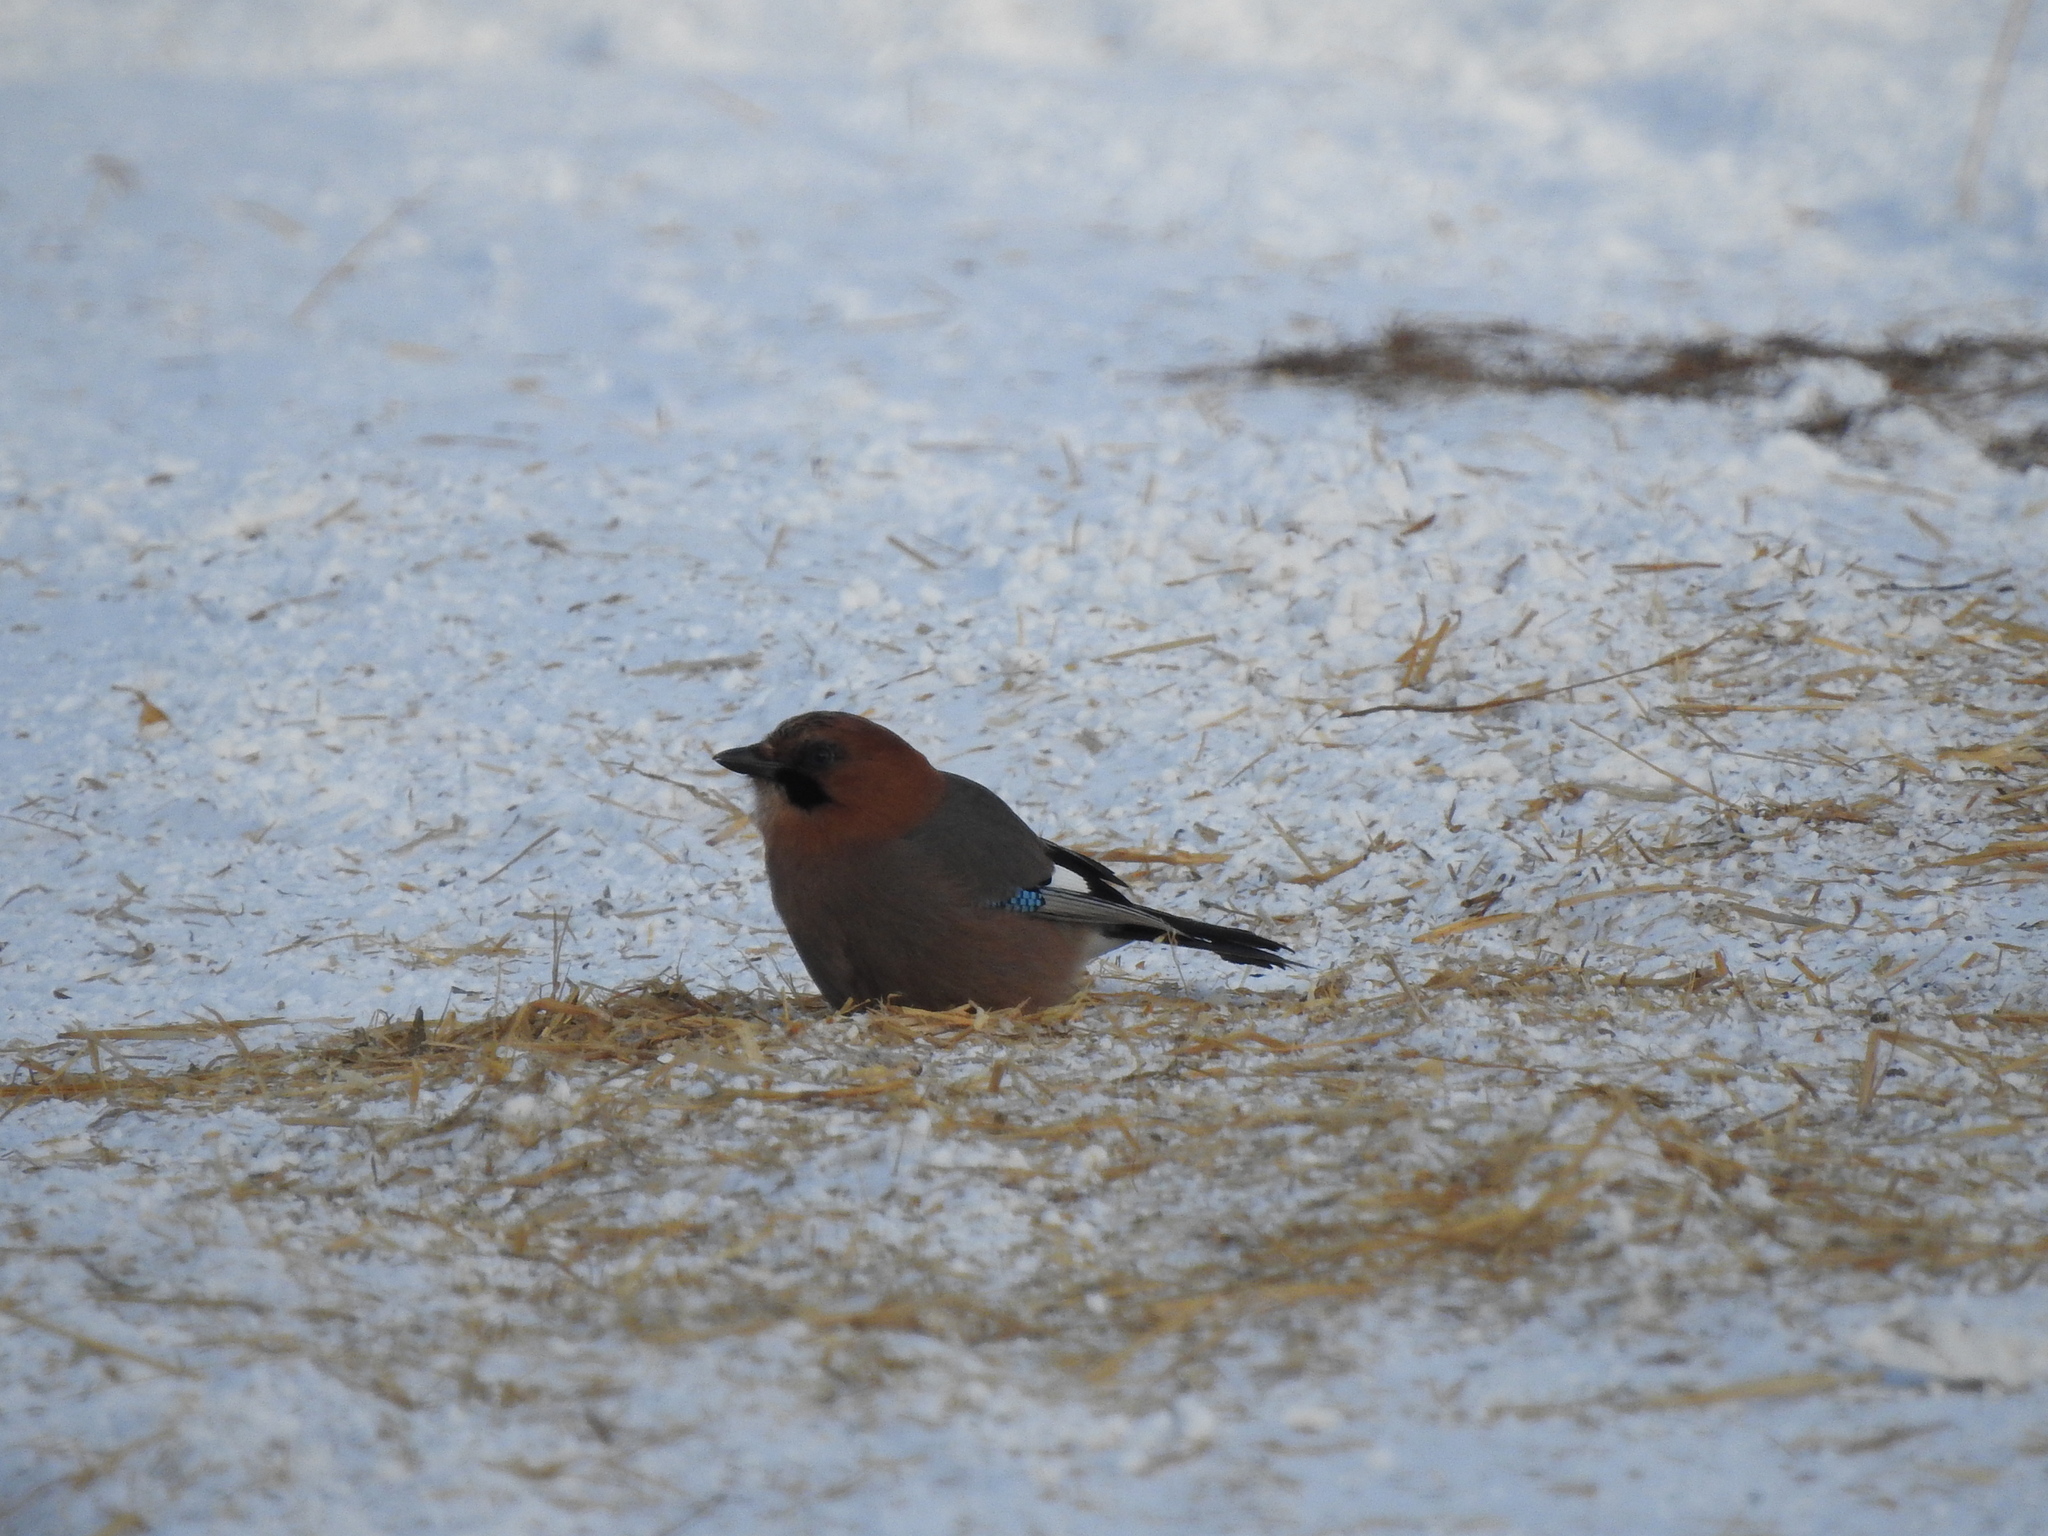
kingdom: Animalia
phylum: Chordata
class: Aves
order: Passeriformes
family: Corvidae
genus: Garrulus
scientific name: Garrulus glandarius
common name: Eurasian jay
